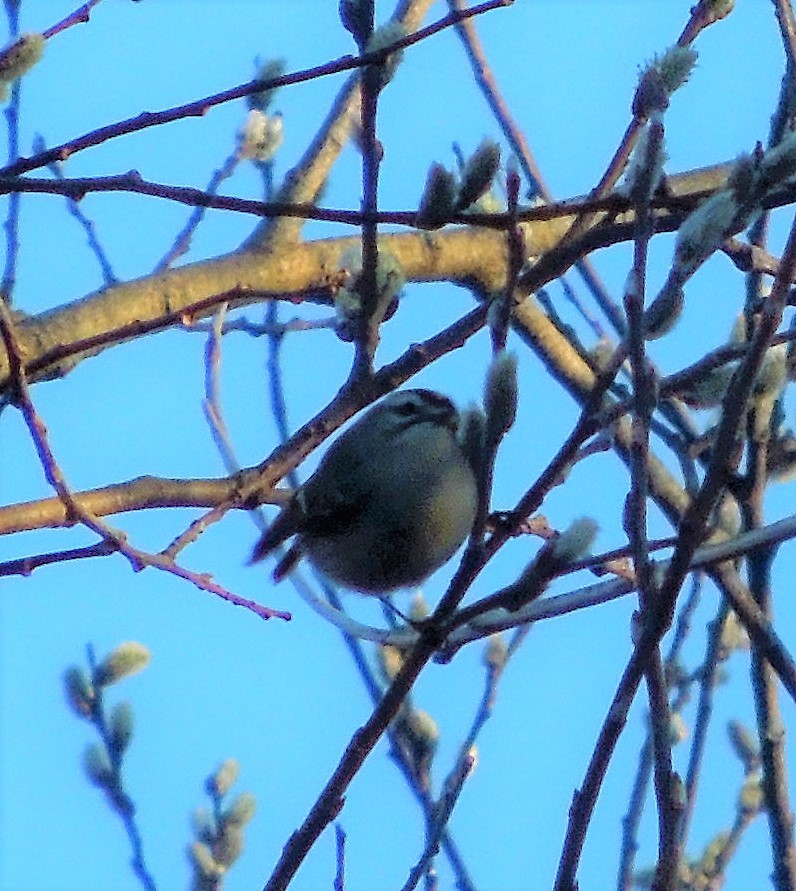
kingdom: Animalia
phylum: Chordata
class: Aves
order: Passeriformes
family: Regulidae
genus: Regulus
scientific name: Regulus satrapa
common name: Golden-crowned kinglet
